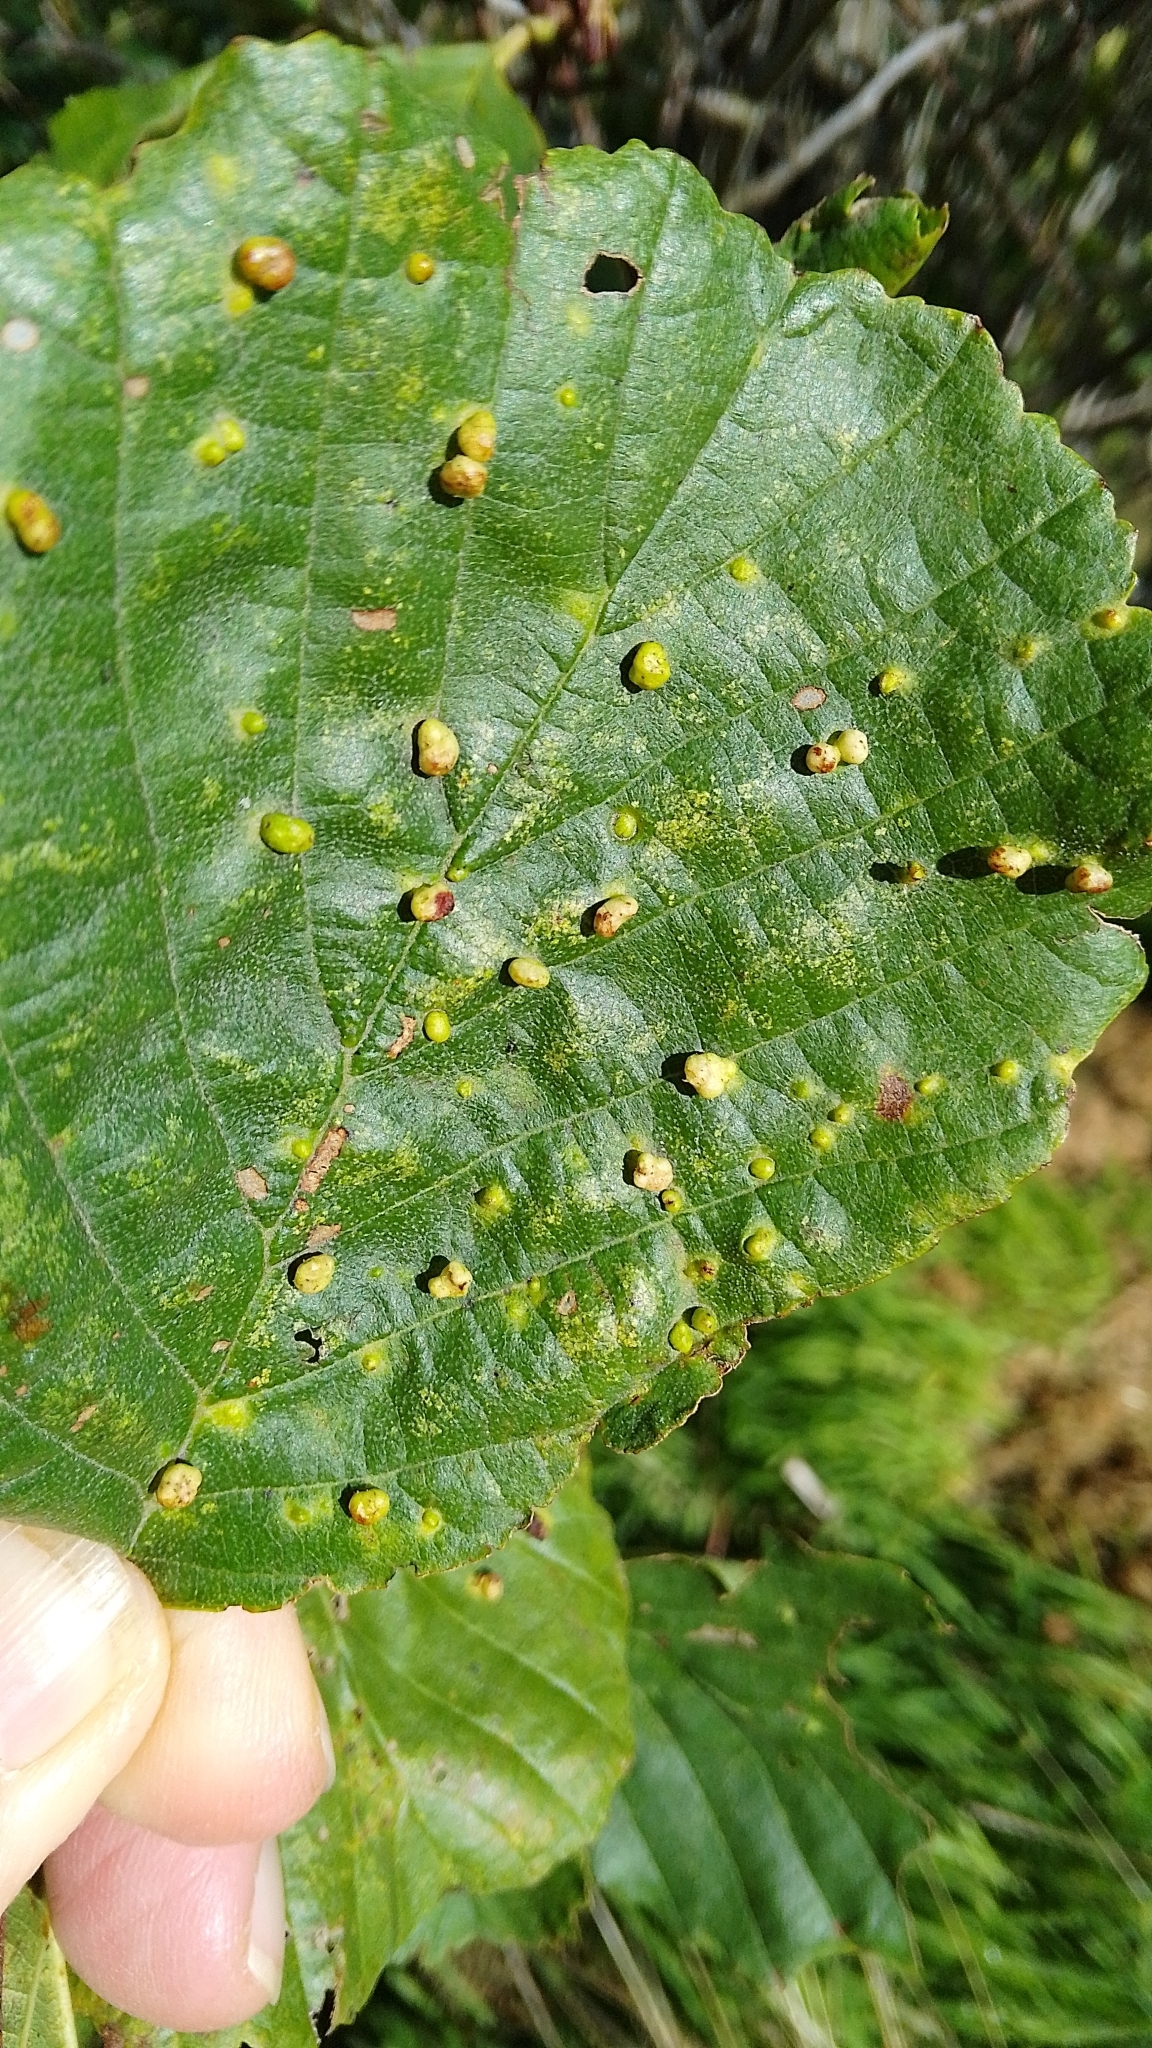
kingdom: Animalia
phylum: Arthropoda
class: Arachnida
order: Trombidiformes
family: Eriophyidae
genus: Eriophyes
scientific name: Eriophyes laevis
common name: Alder leaf gall mite
